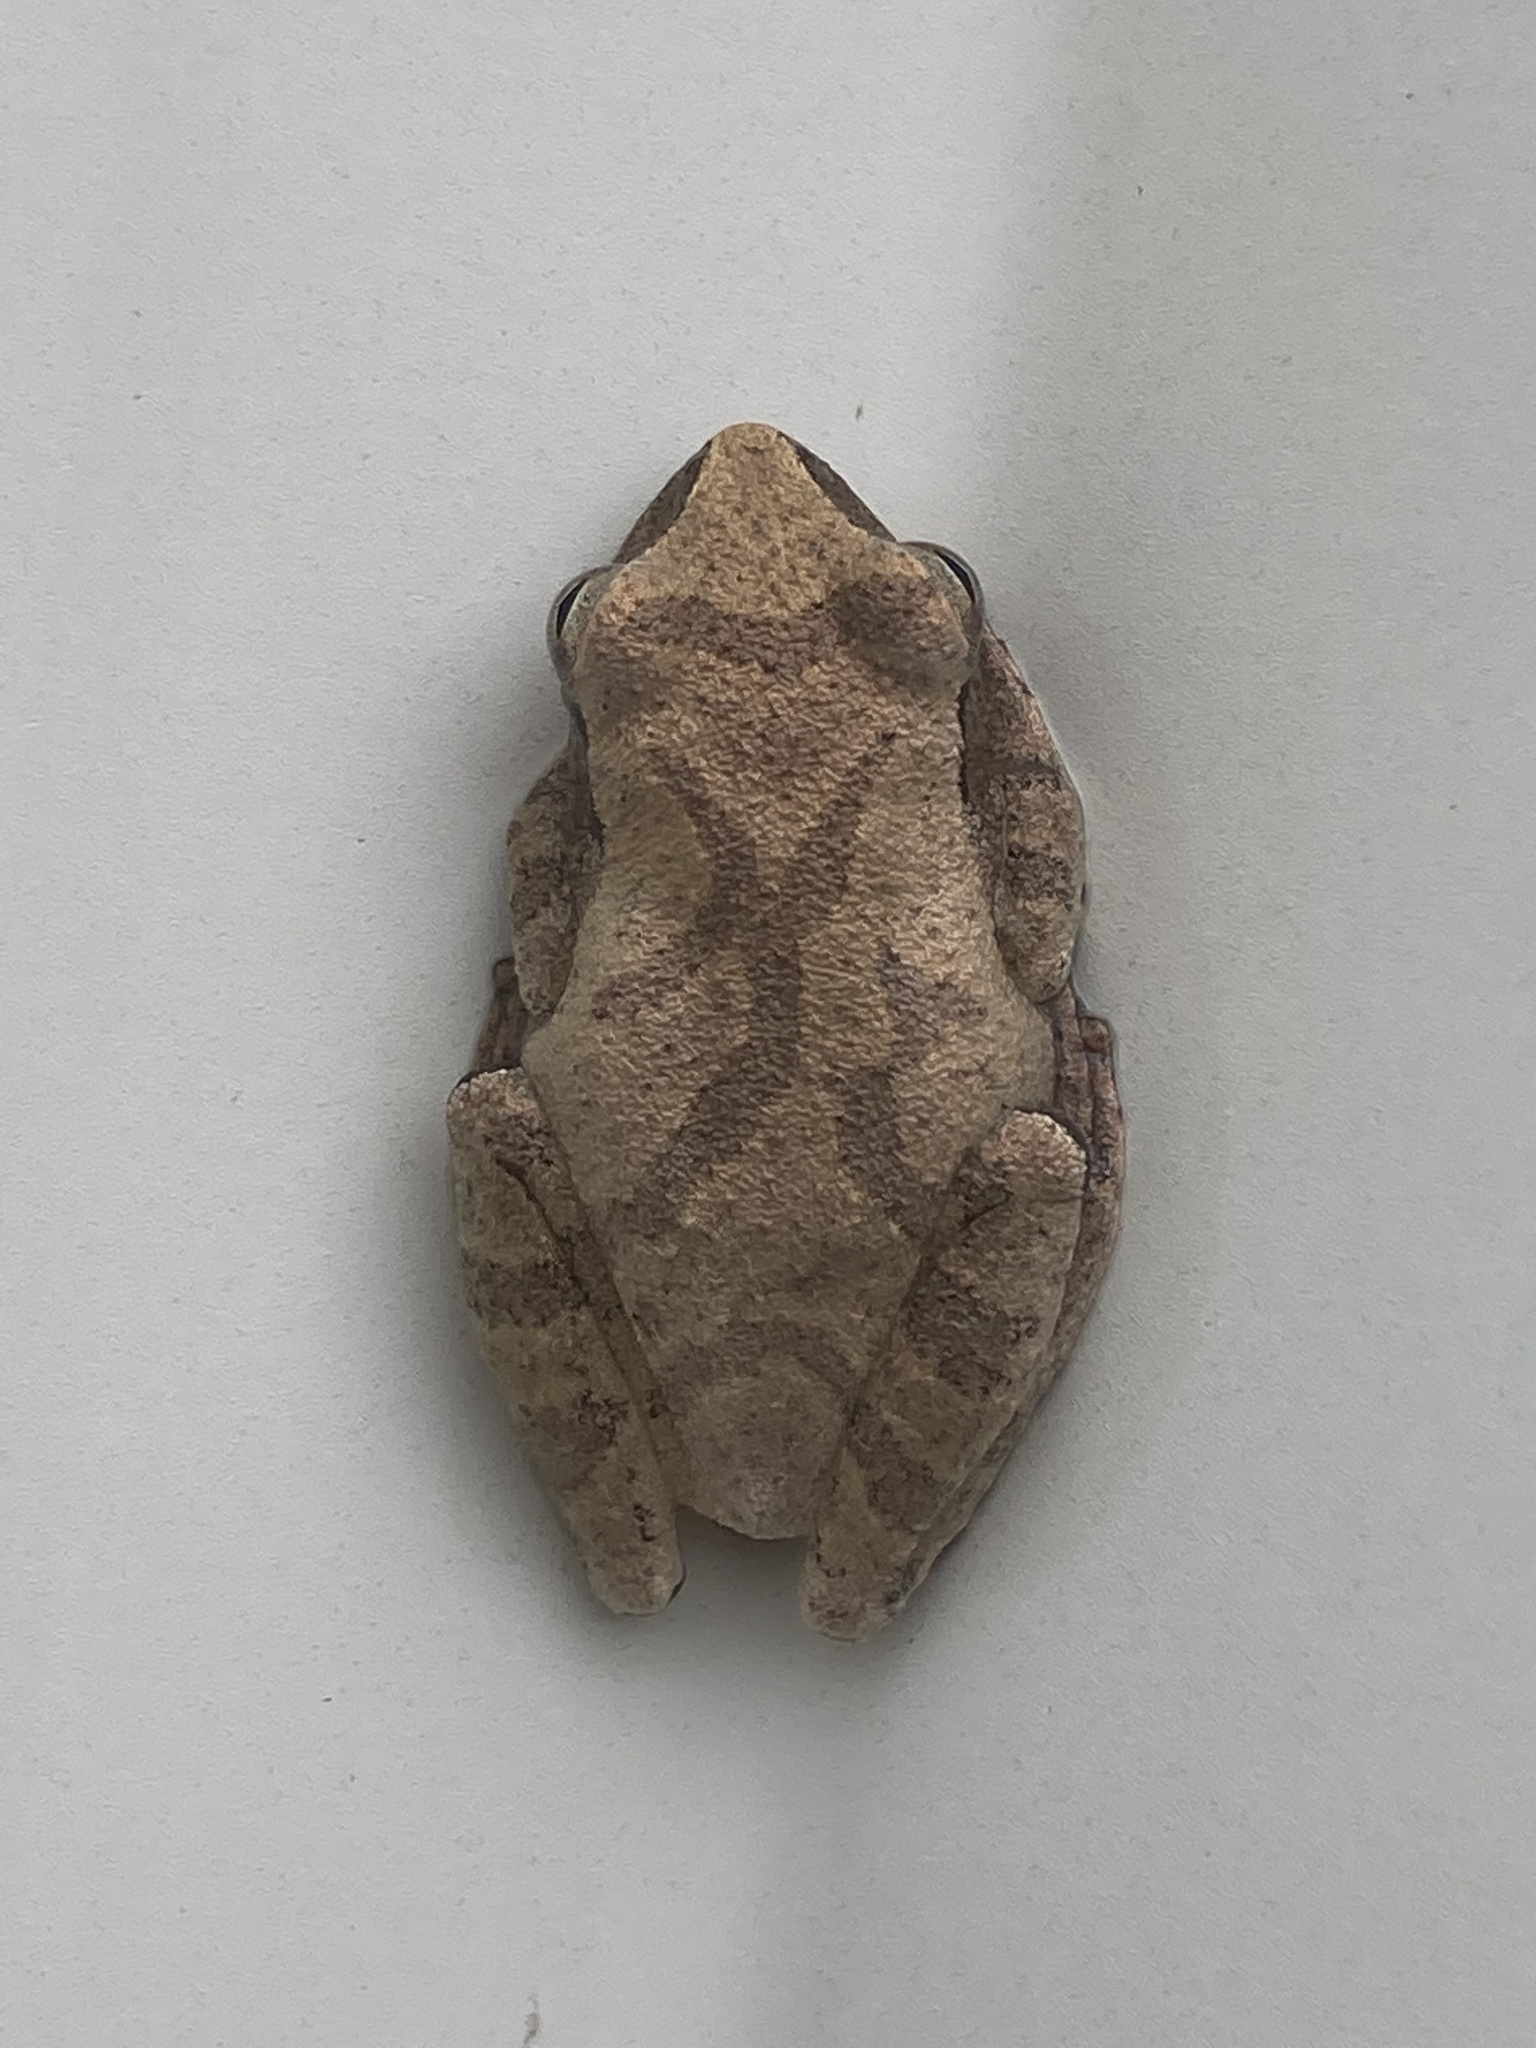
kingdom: Animalia
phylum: Chordata
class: Amphibia
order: Anura
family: Hylidae
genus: Pseudacris
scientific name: Pseudacris crucifer
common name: Spring peeper
